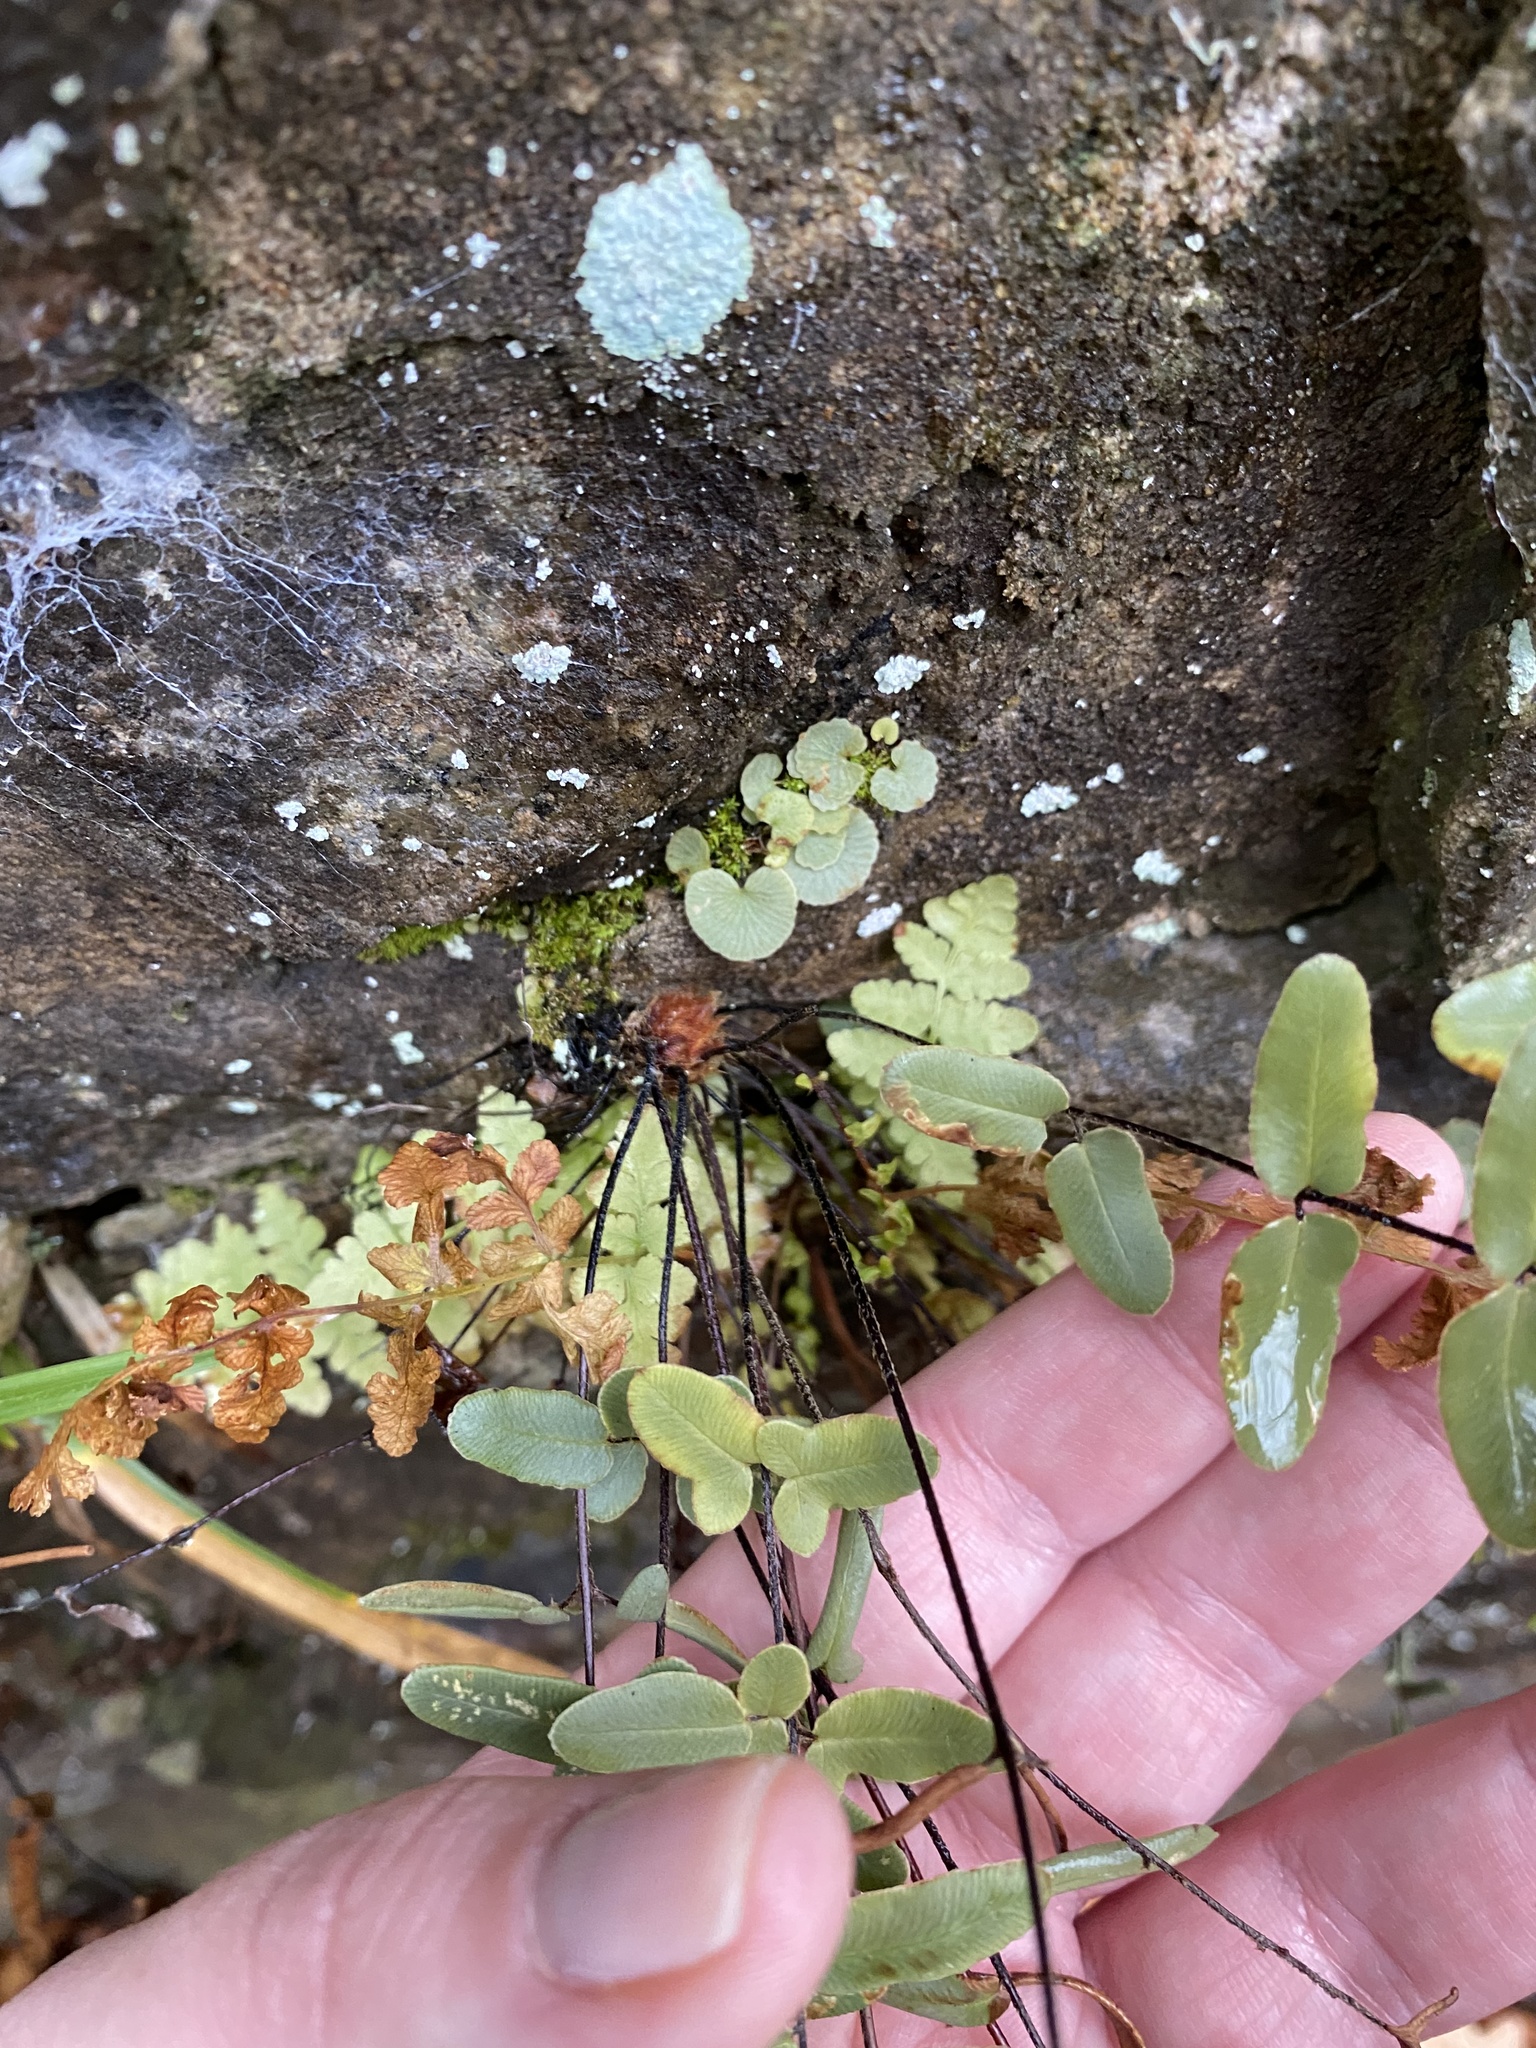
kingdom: Plantae
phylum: Tracheophyta
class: Polypodiopsida
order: Polypodiales
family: Pteridaceae
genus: Pellaea
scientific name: Pellaea atropurpurea
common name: Hairy cliffbrake
